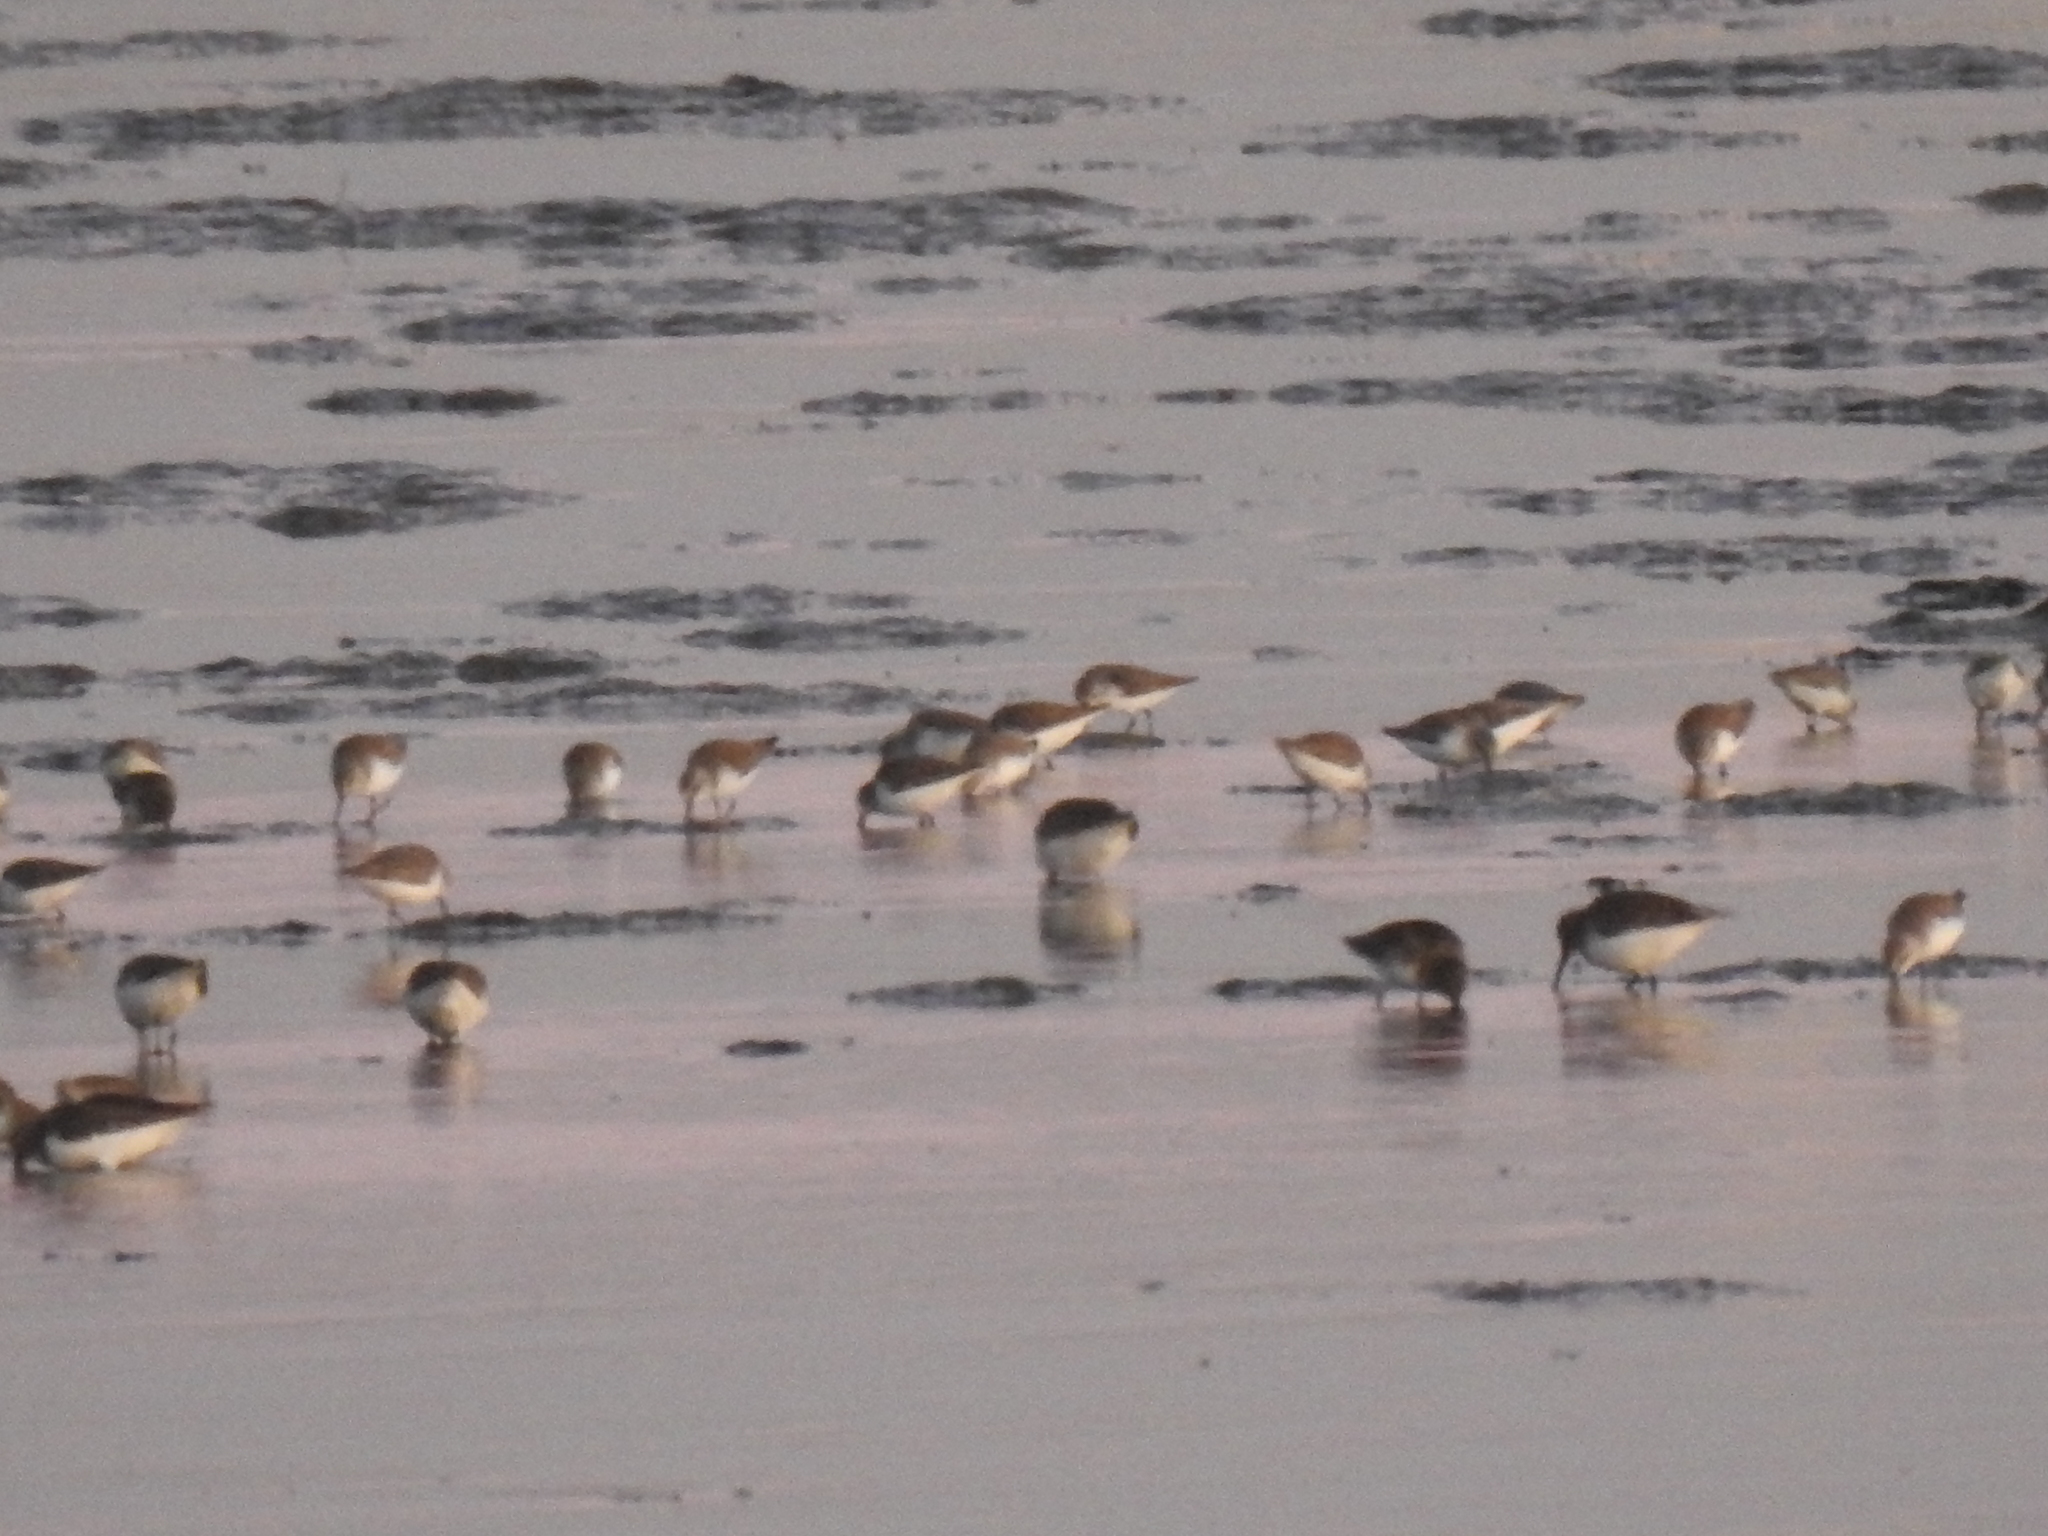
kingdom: Animalia
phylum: Chordata
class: Aves
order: Charadriiformes
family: Scolopacidae
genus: Calidris
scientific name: Calidris alpina
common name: Dunlin
